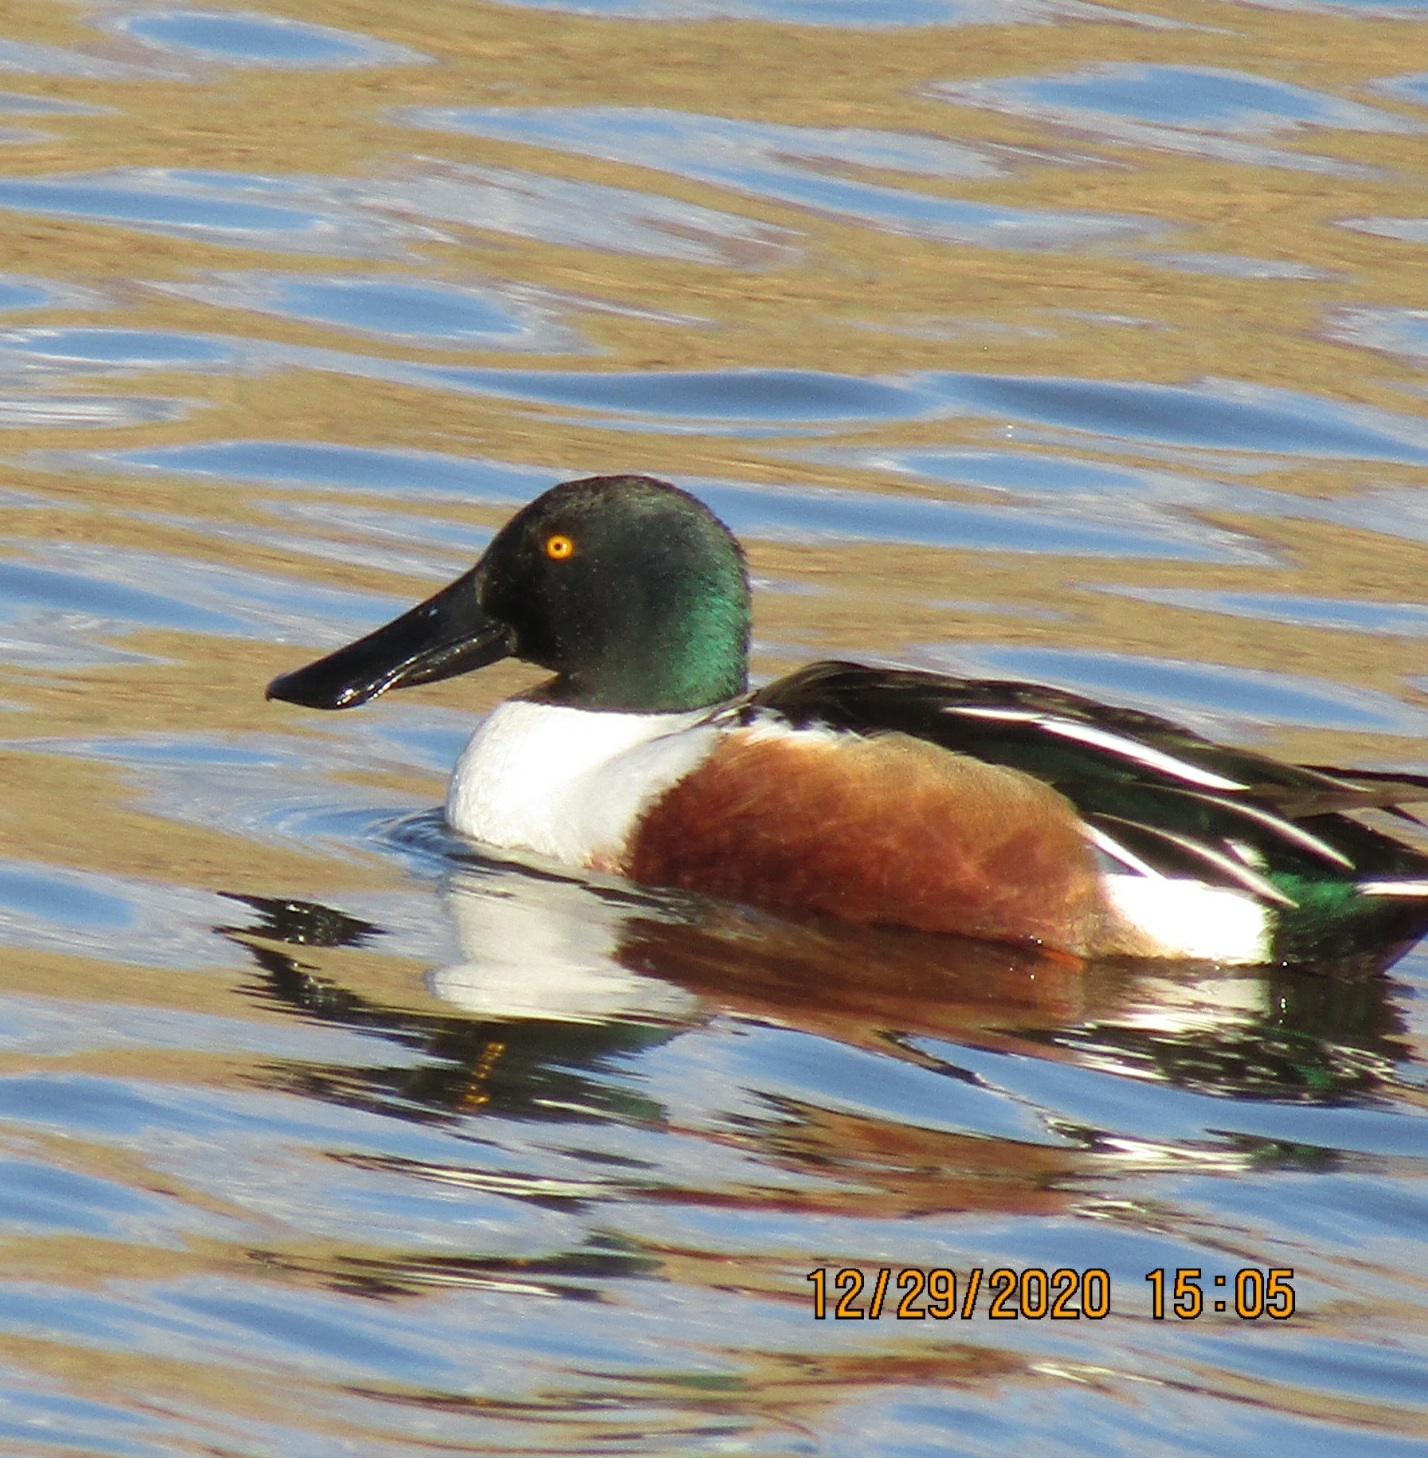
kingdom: Animalia
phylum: Chordata
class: Aves
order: Anseriformes
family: Anatidae
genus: Spatula
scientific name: Spatula clypeata
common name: Northern shoveler
